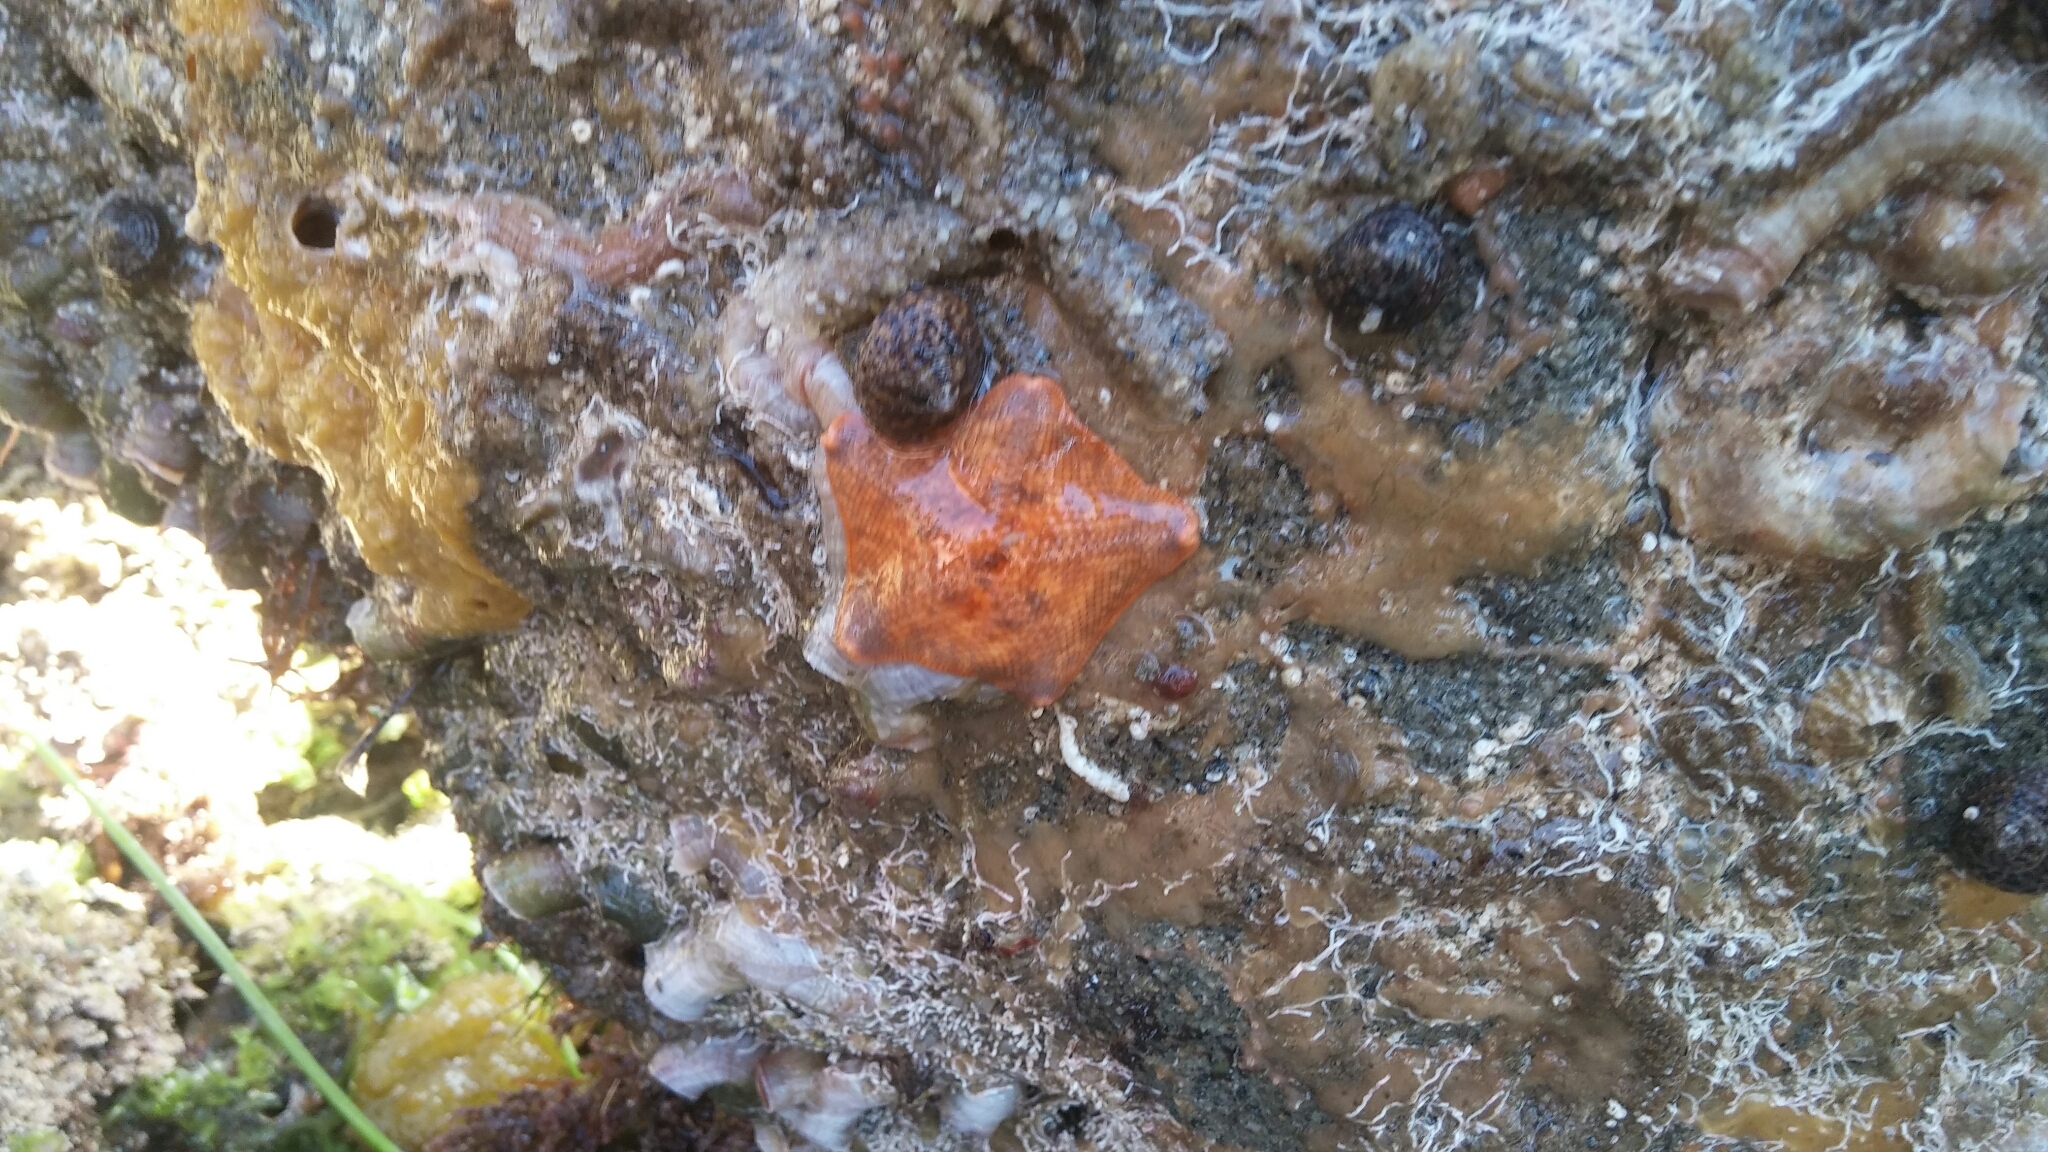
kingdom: Animalia
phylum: Echinodermata
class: Asteroidea
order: Valvatida
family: Asterinidae
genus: Patiria
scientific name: Patiria miniata
